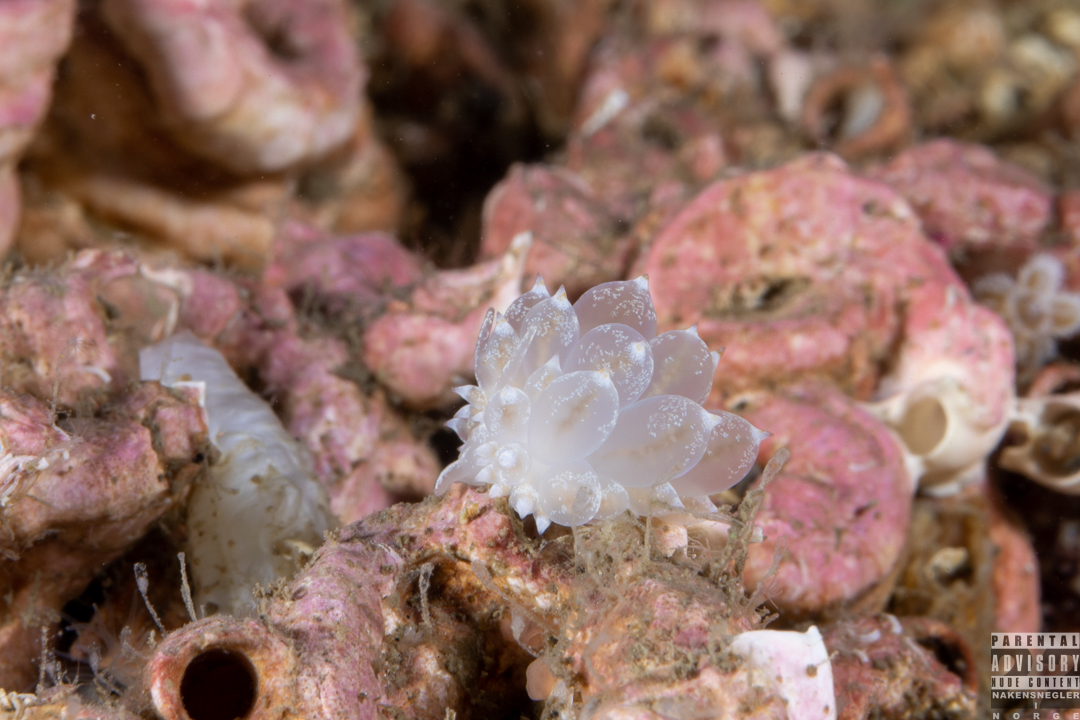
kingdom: Animalia
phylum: Mollusca
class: Gastropoda
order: Nudibranchia
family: Eubranchidae
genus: Amphorina
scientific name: Amphorina pallida
